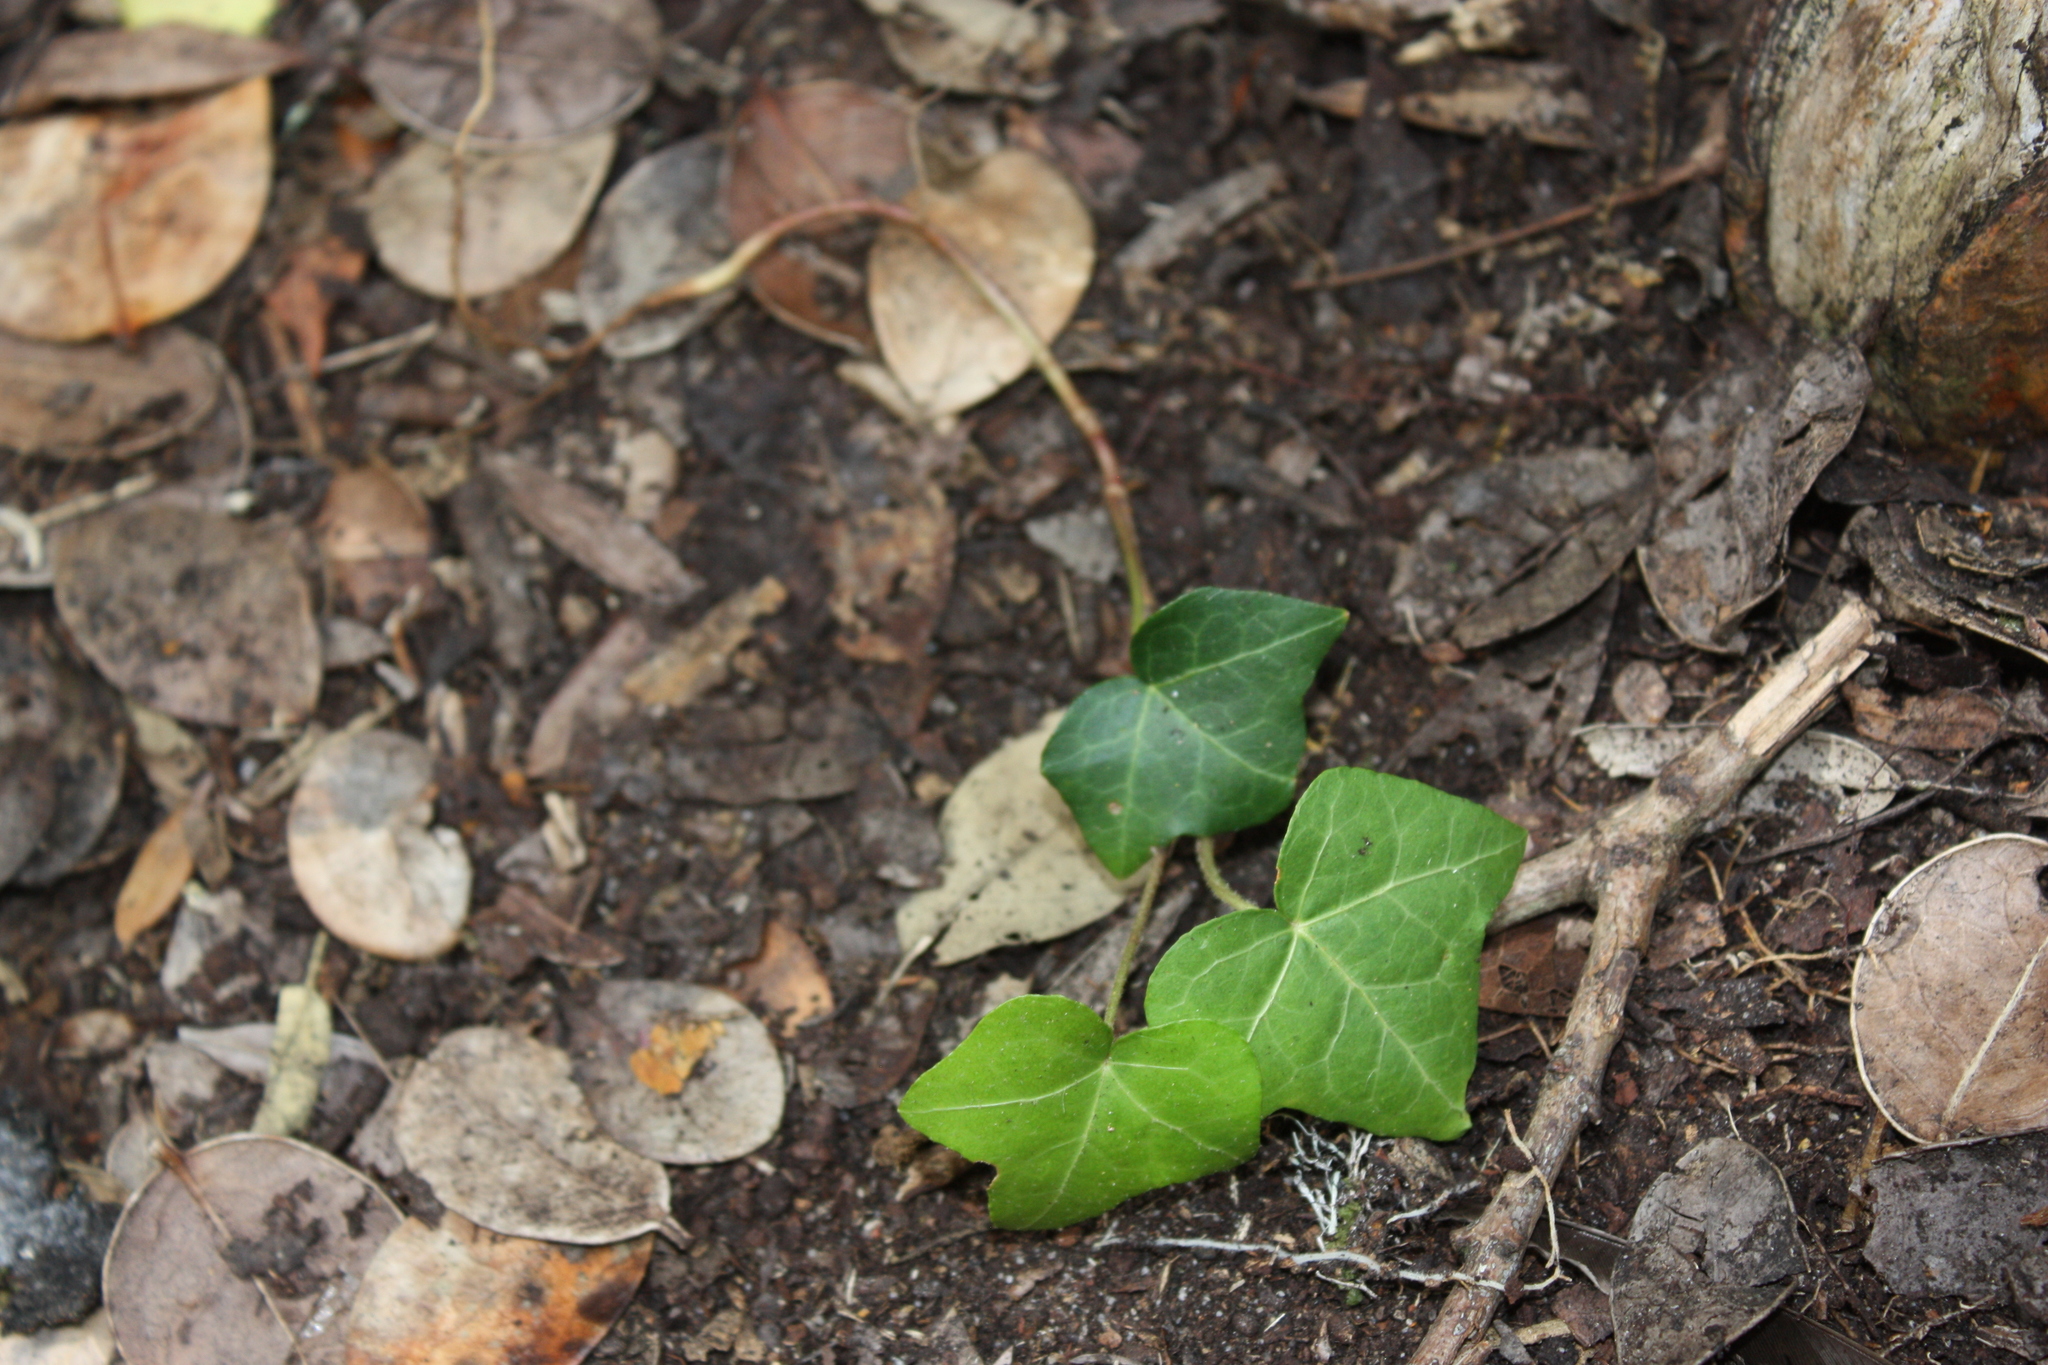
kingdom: Plantae
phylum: Tracheophyta
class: Magnoliopsida
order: Apiales
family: Araliaceae
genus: Hedera
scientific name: Hedera helix
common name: Ivy
